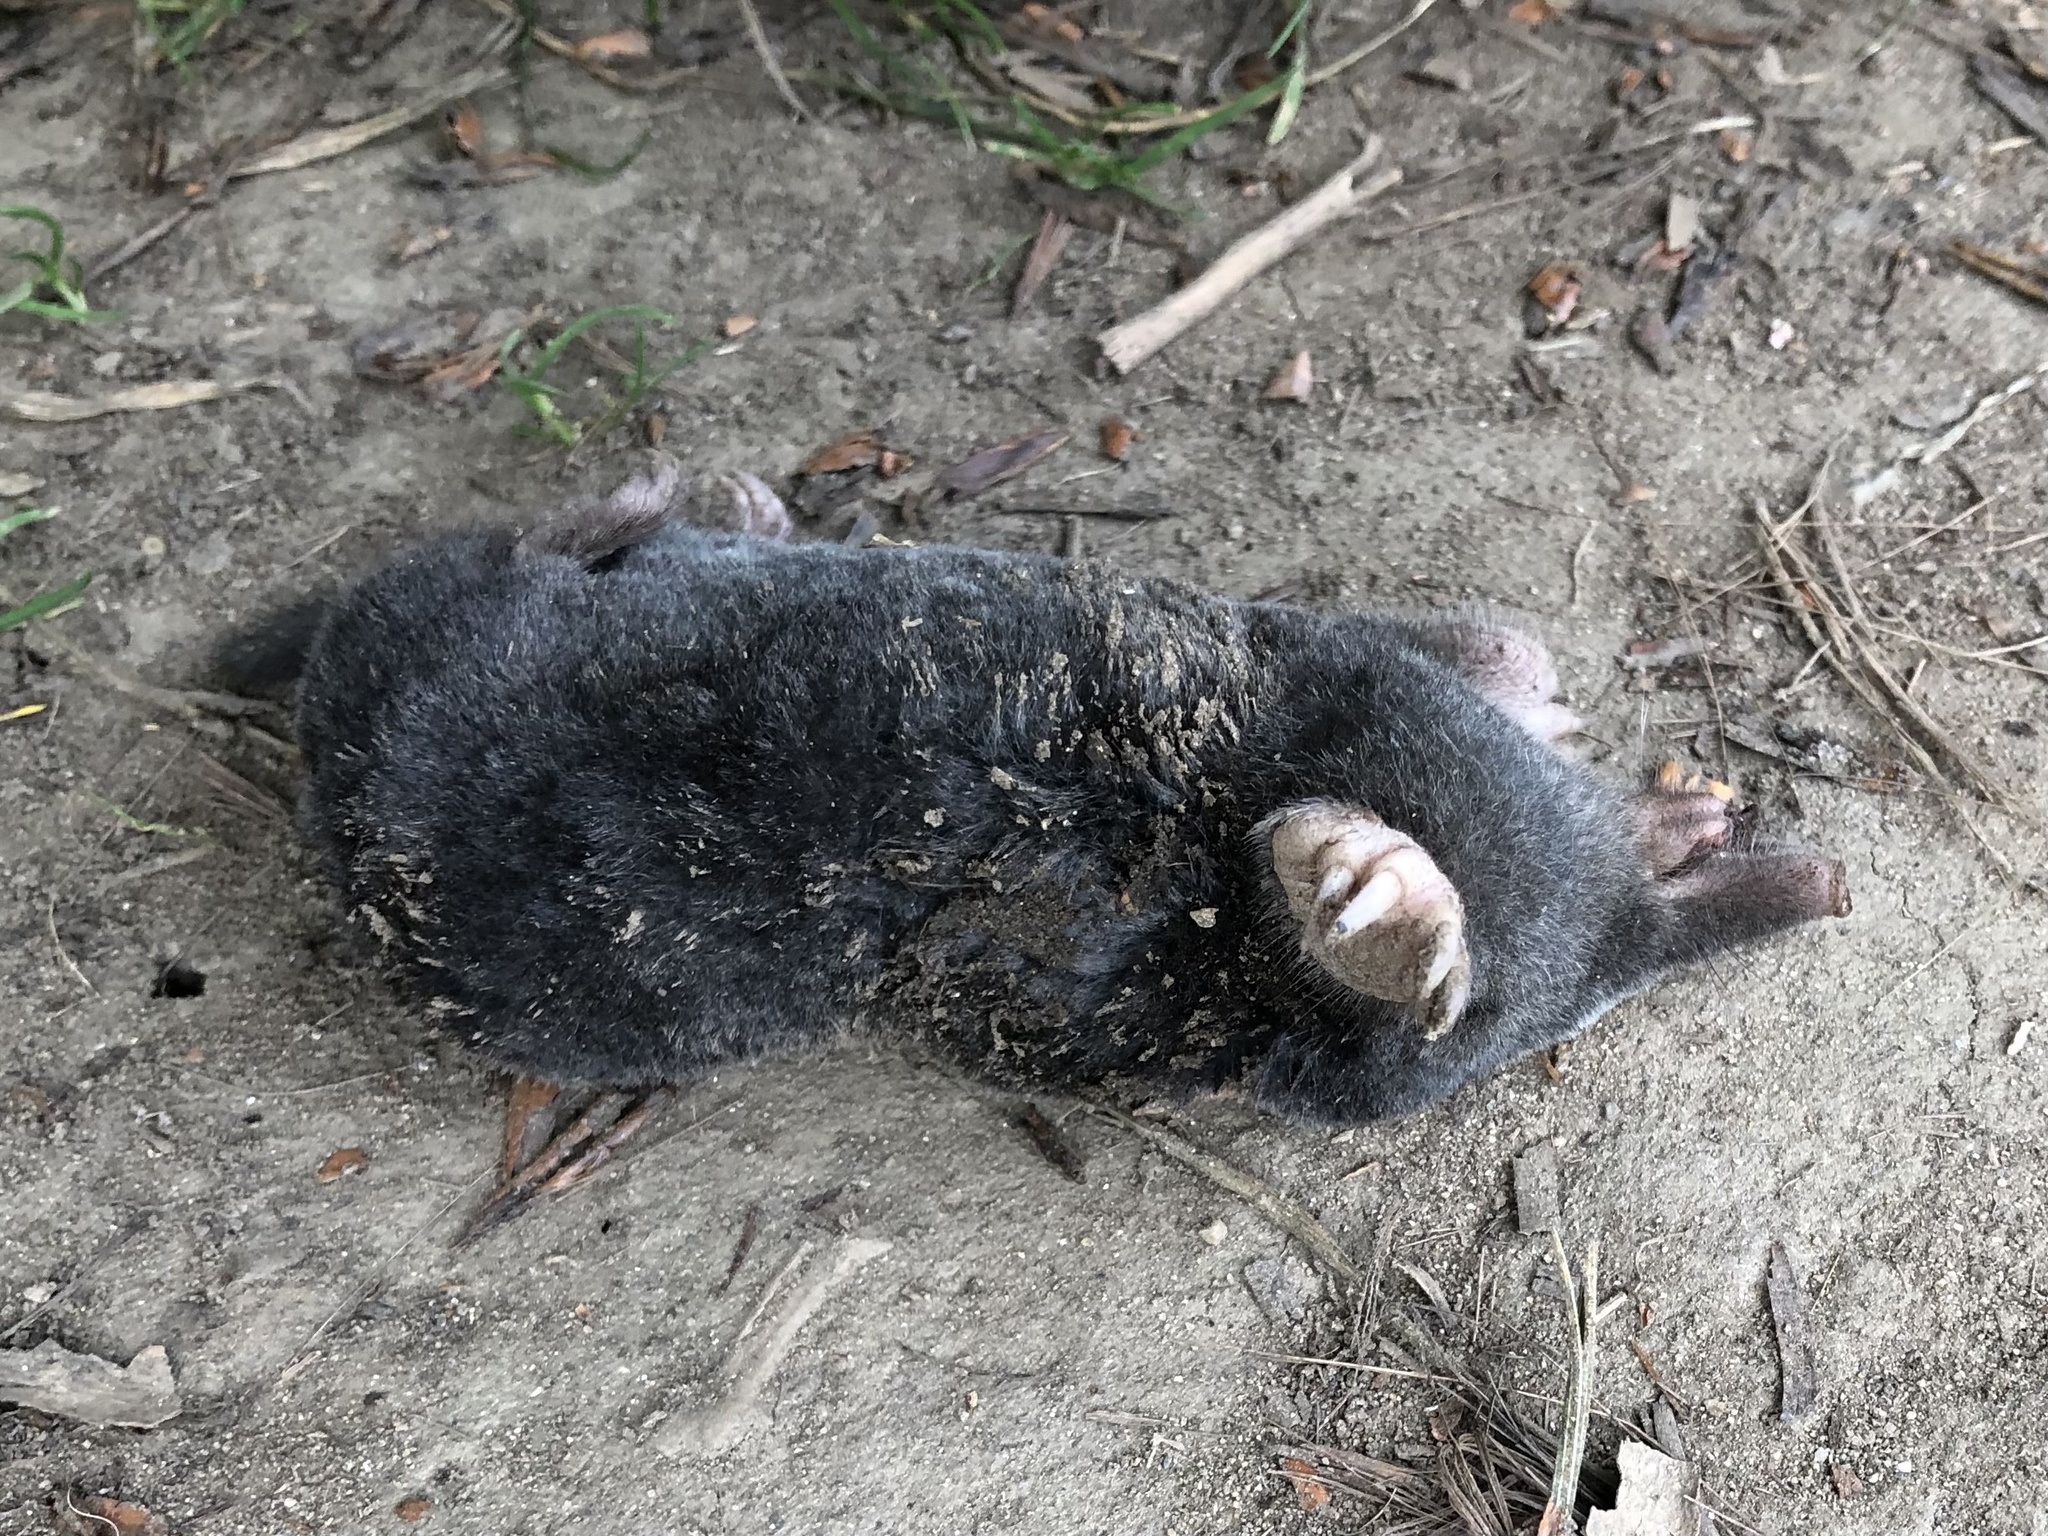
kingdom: Animalia
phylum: Chordata
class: Mammalia
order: Soricomorpha
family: Talpidae
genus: Talpa
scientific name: Talpa europaea
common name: European mole
